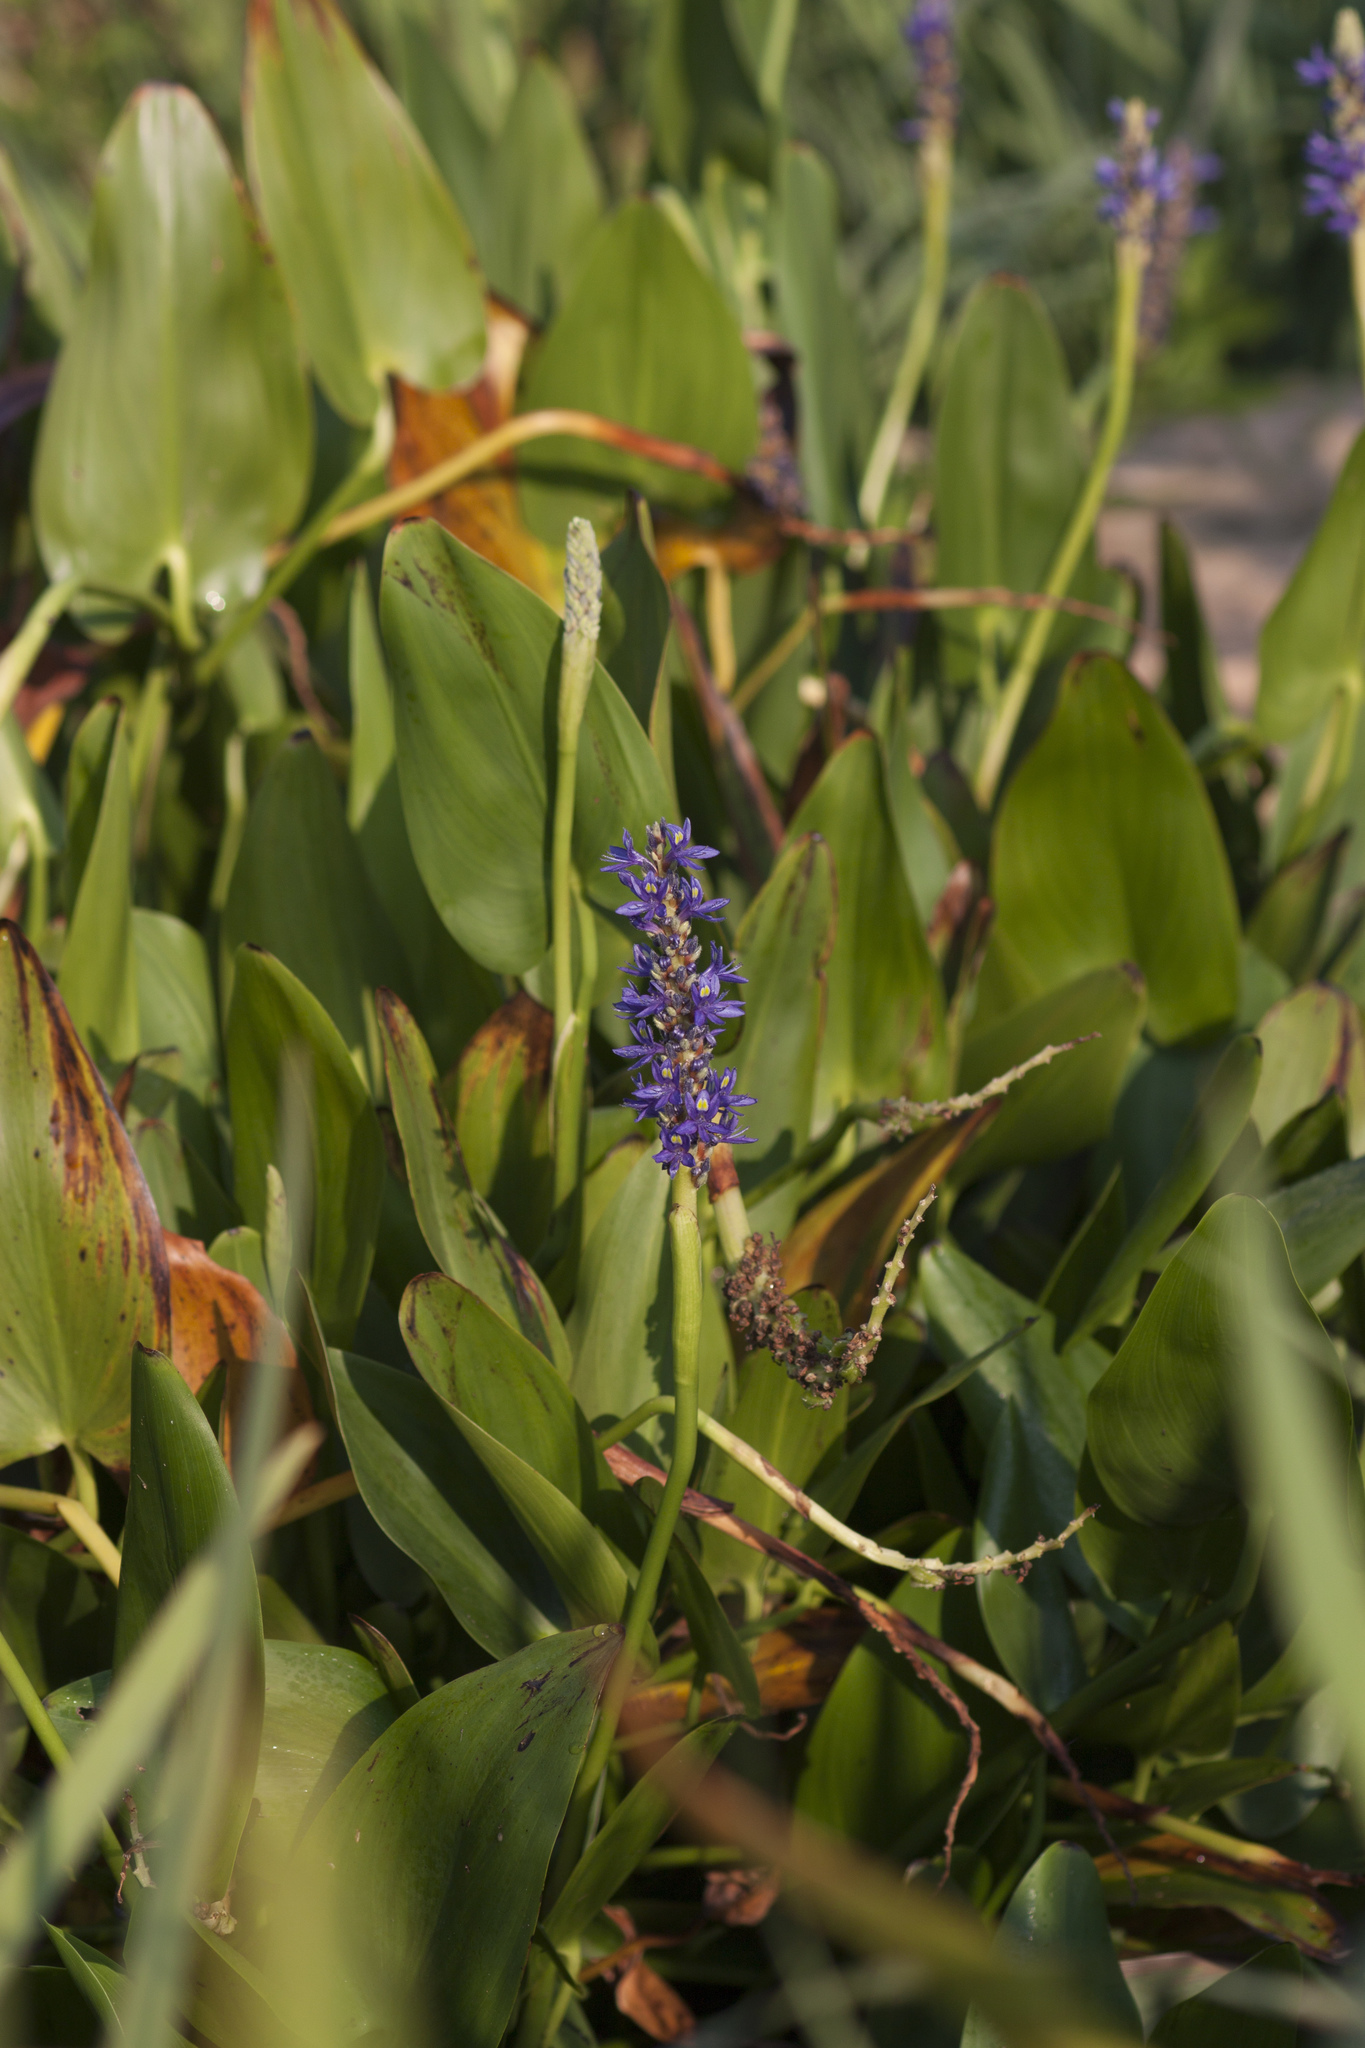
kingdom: Plantae
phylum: Tracheophyta
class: Liliopsida
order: Commelinales
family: Pontederiaceae
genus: Pontederia
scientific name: Pontederia cordata
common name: Pickerelweed
